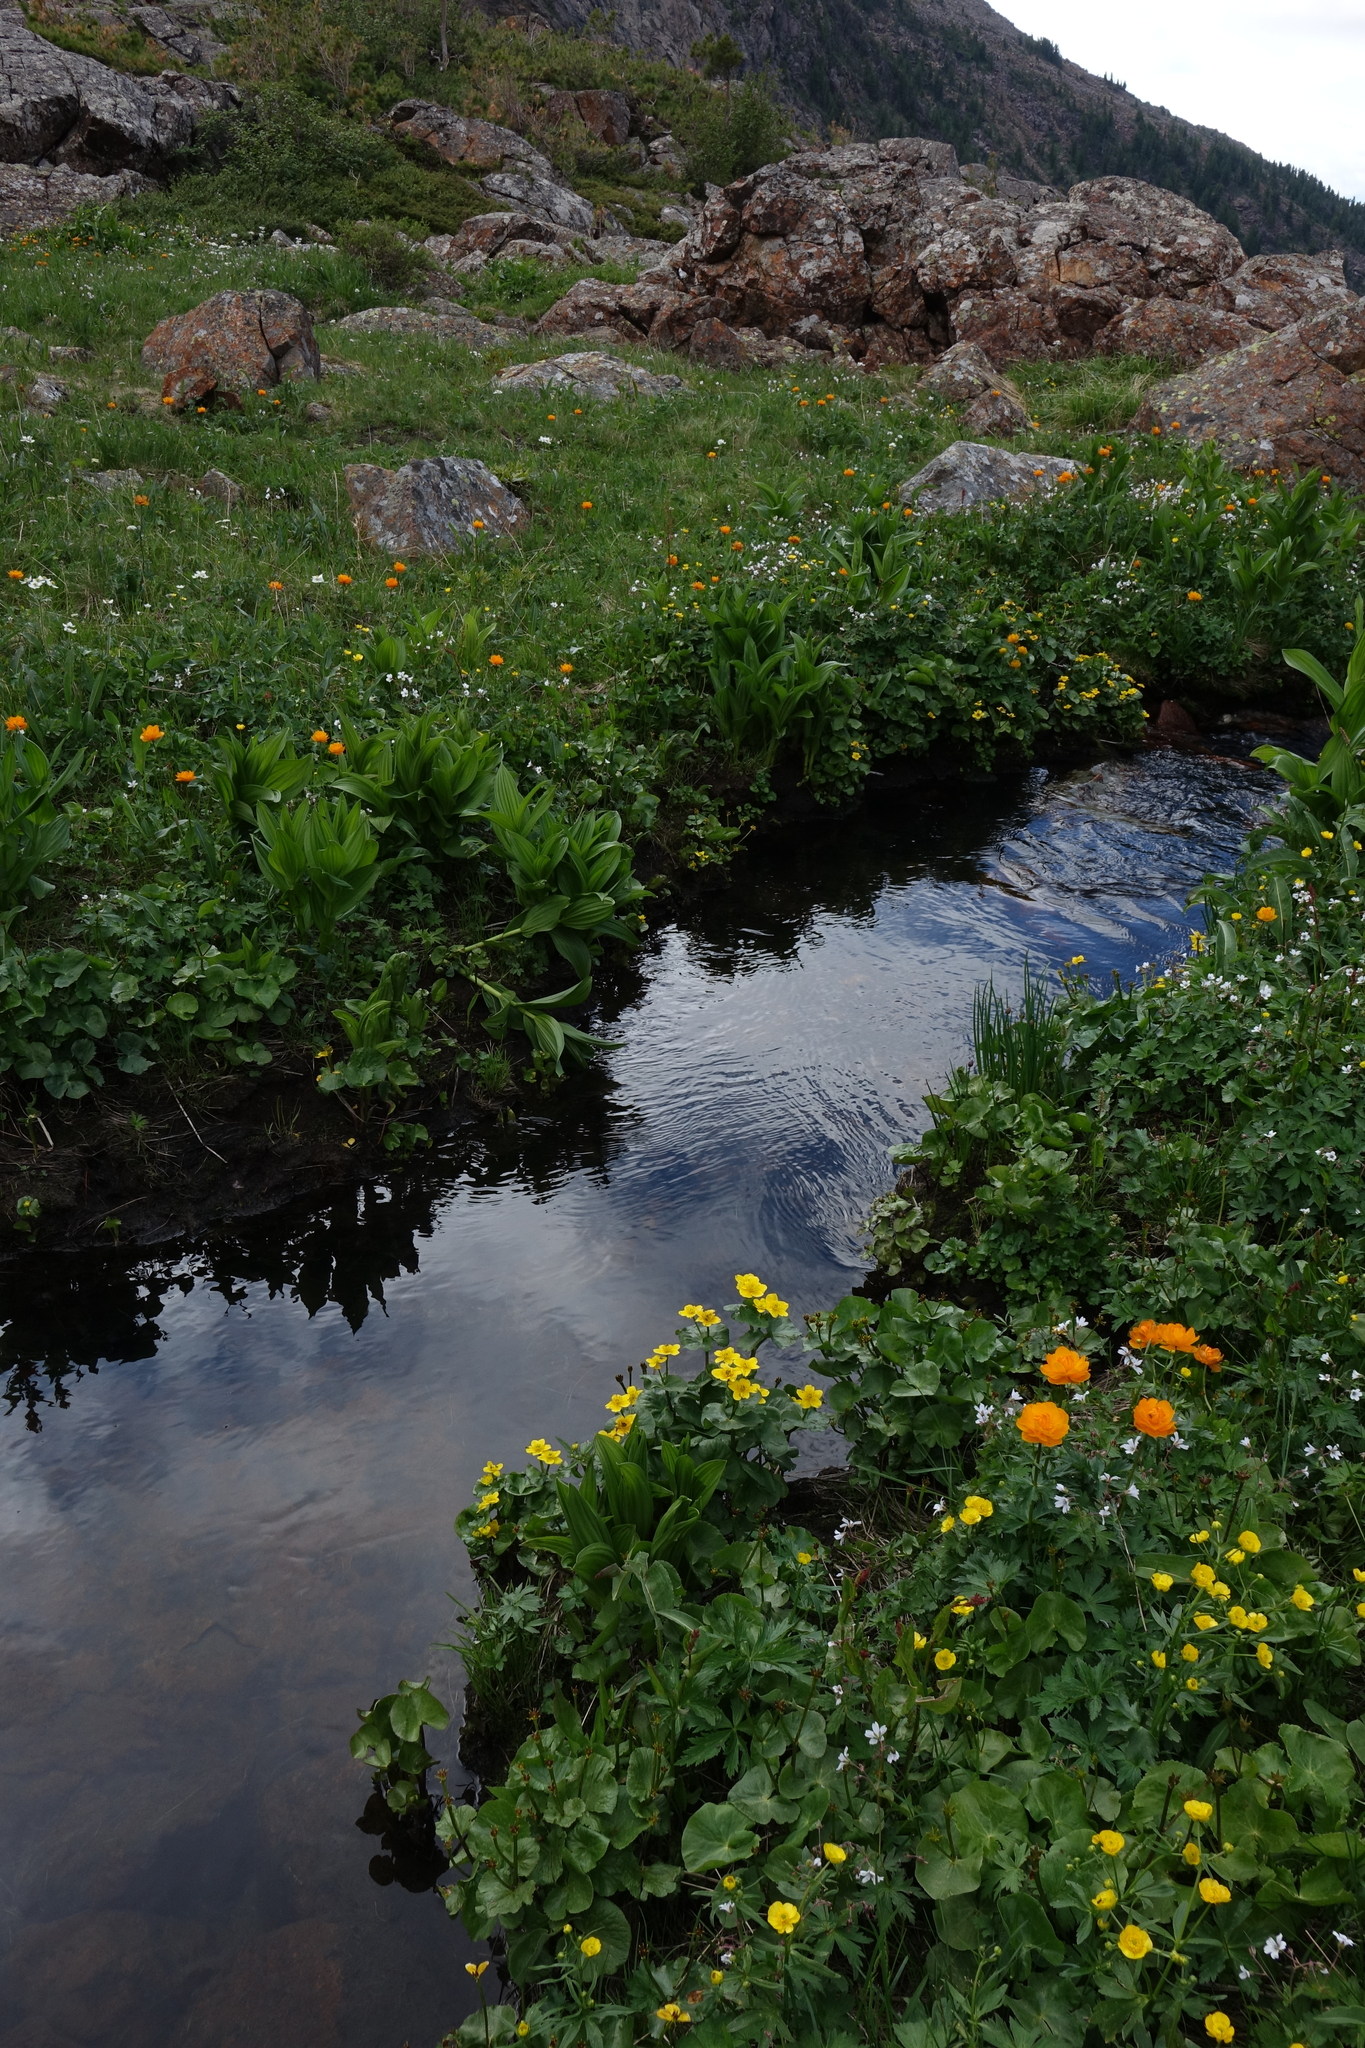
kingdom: Plantae
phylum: Tracheophyta
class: Magnoliopsida
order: Ranunculales
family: Ranunculaceae
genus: Caltha
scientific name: Caltha palustris
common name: Marsh marigold
